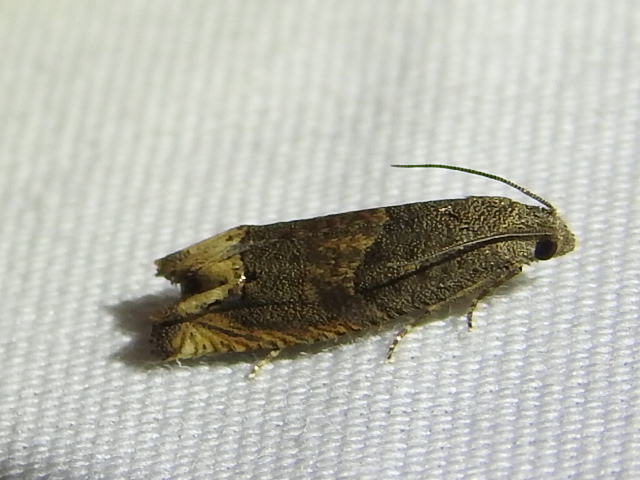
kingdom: Animalia
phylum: Arthropoda
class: Insecta
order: Lepidoptera
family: Tortricidae
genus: Epiblema
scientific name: Epiblema strenuana
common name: Ragweed borer moth
